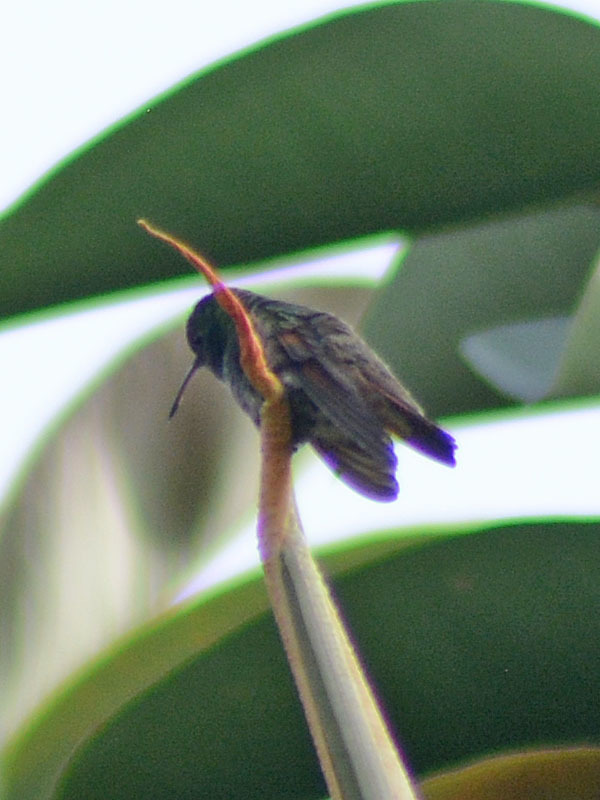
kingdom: Animalia
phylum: Chordata
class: Aves
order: Apodiformes
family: Trochilidae
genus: Saucerottia
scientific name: Saucerottia beryllina
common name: Berylline hummingbird
